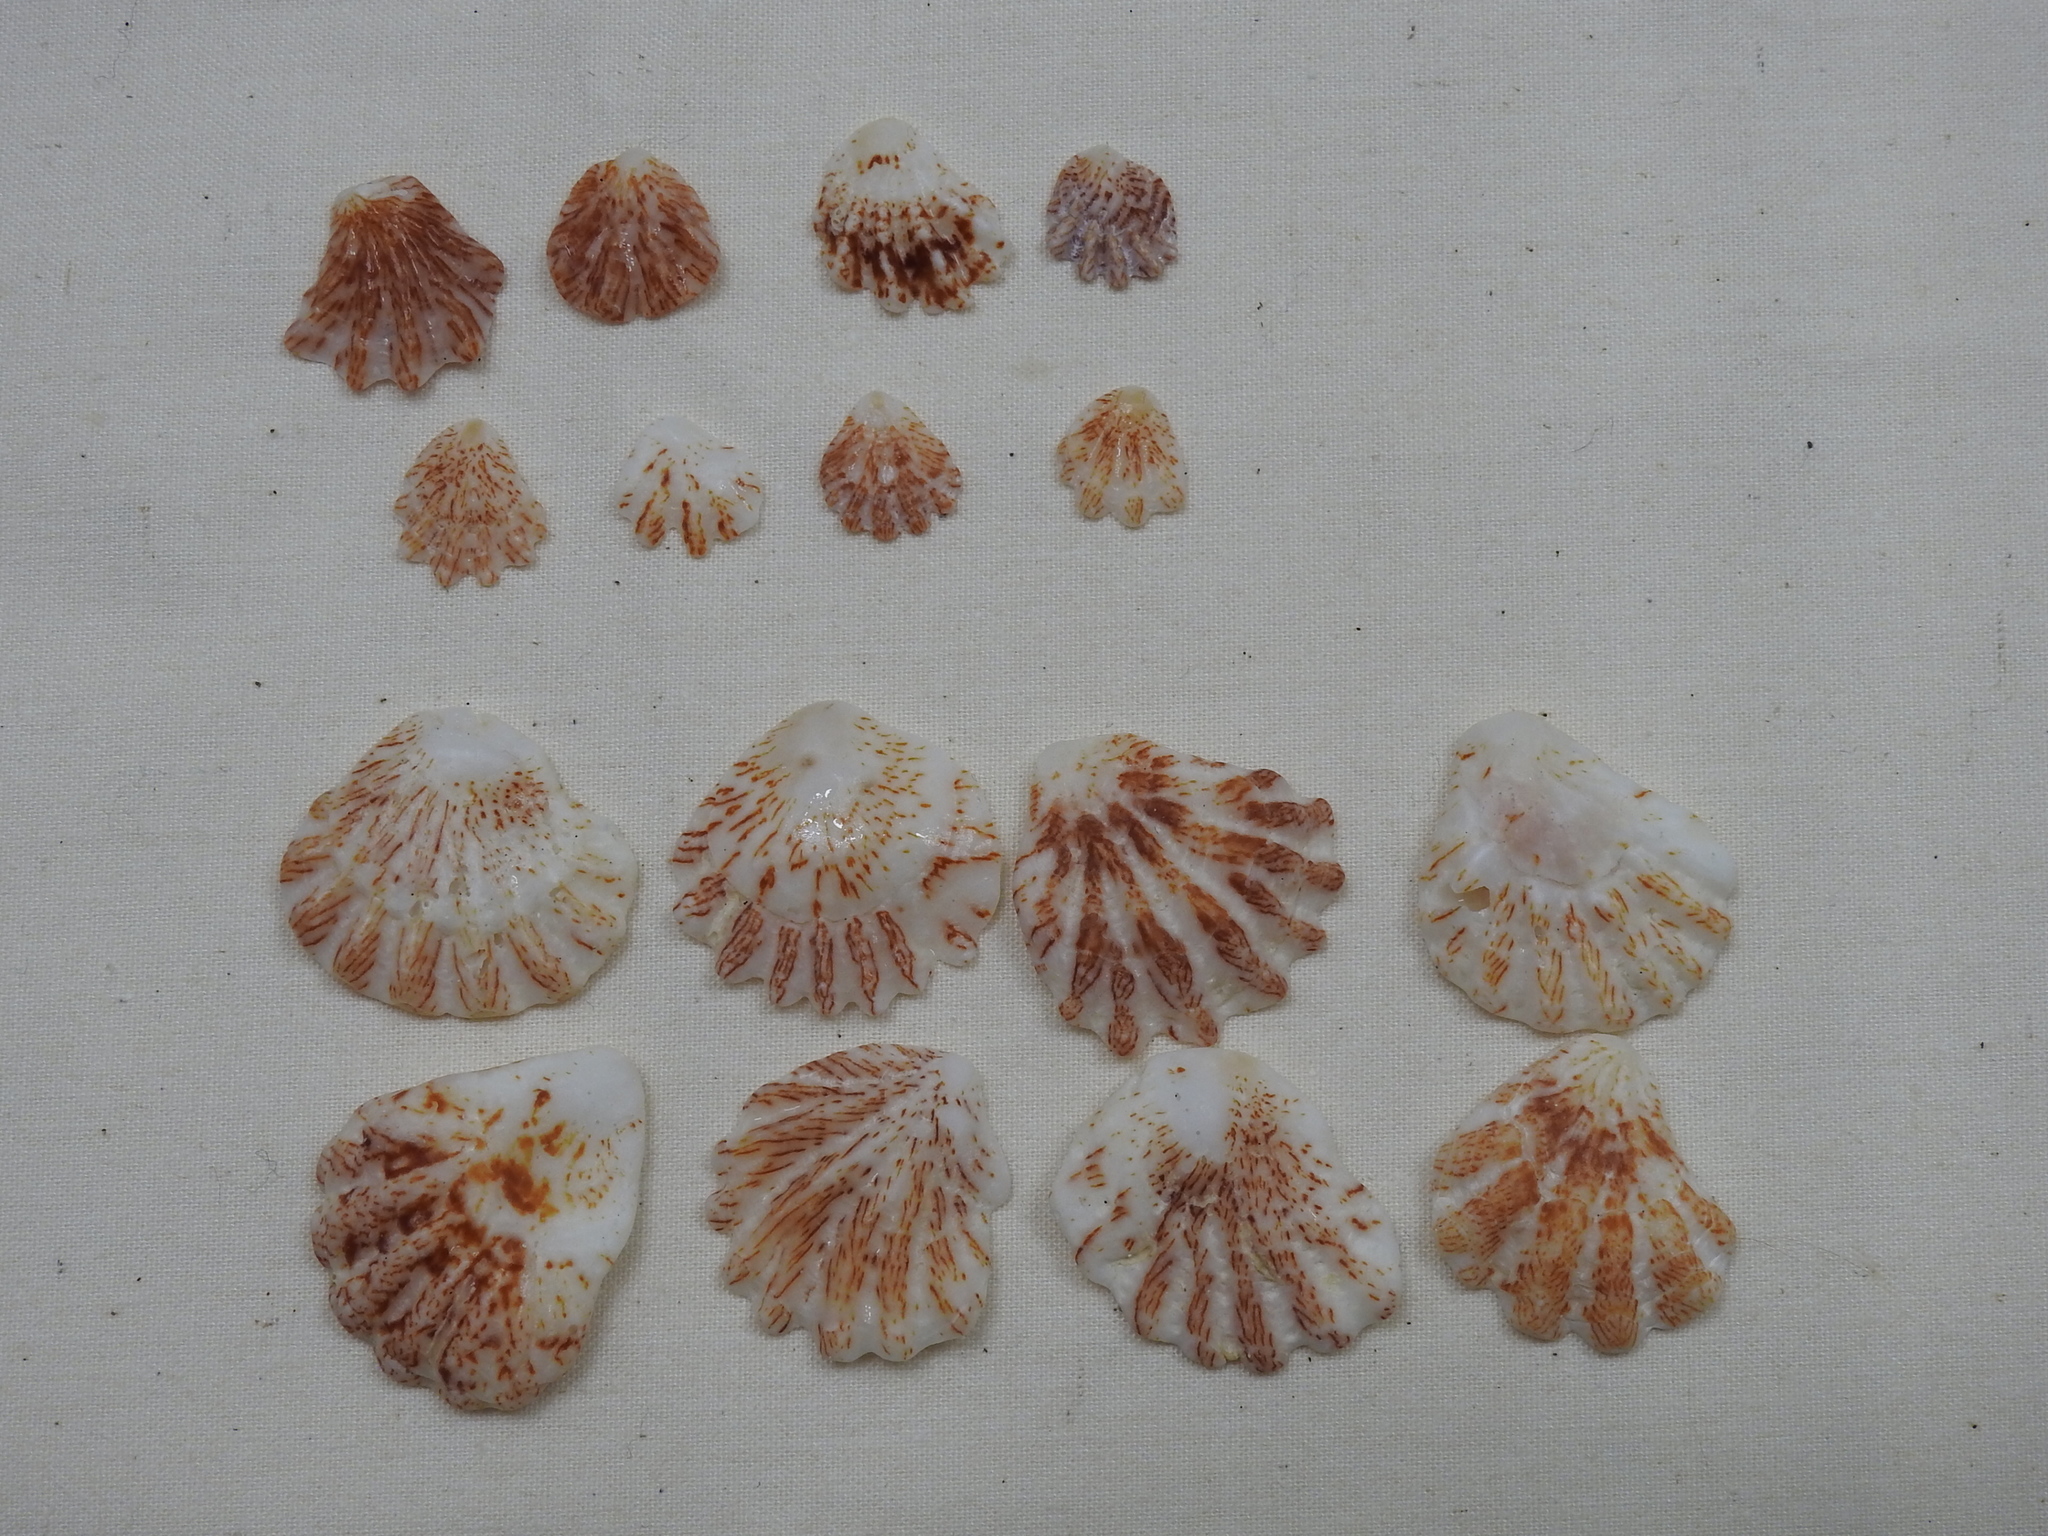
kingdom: Animalia
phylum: Mollusca
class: Bivalvia
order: Pectinida
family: Plicatulidae
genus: Plicatula
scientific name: Plicatula gibbosa
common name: Atlantic kitten's paw
